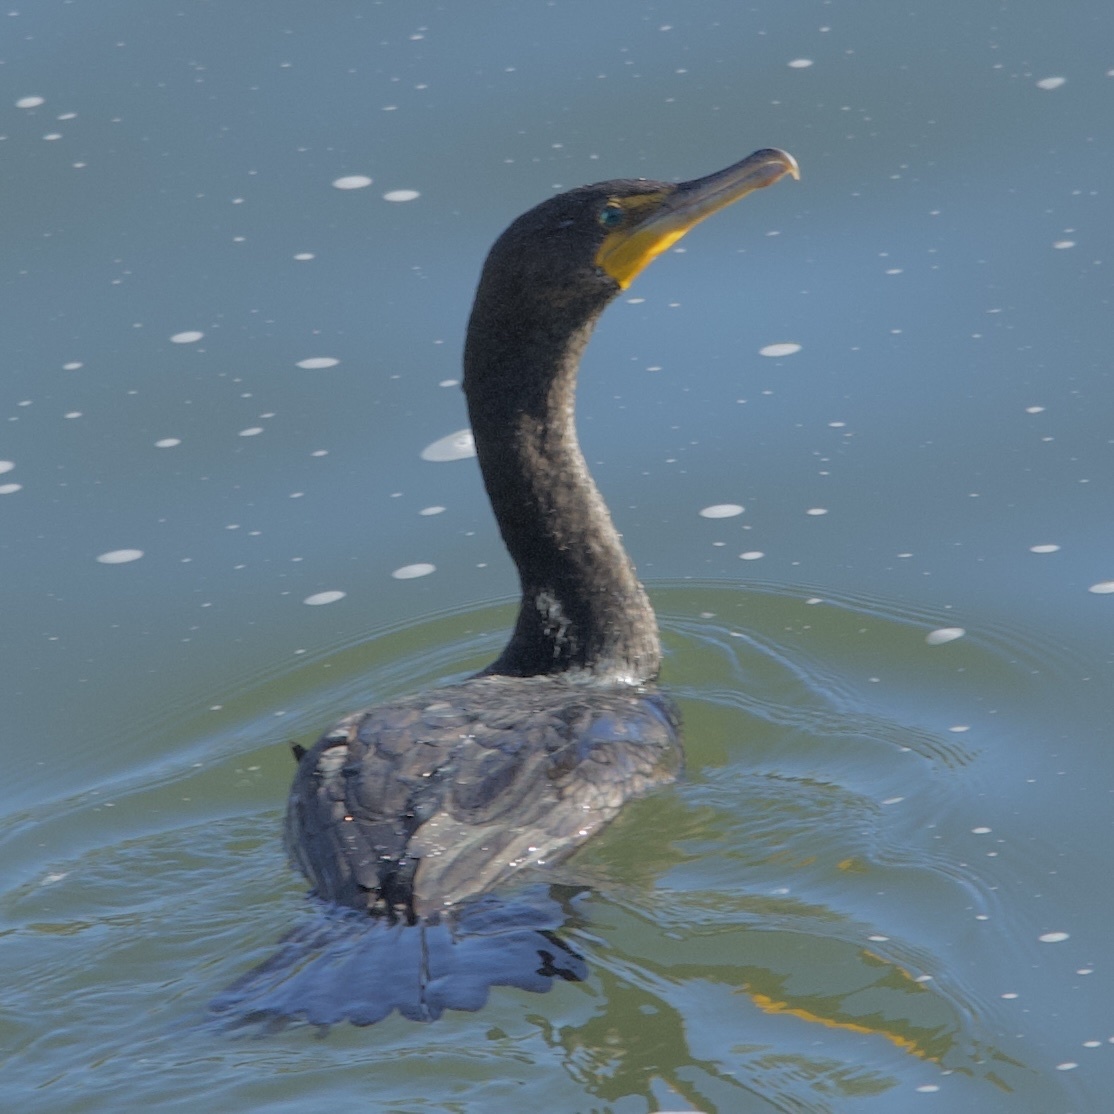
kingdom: Animalia
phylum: Chordata
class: Aves
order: Suliformes
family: Phalacrocoracidae
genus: Phalacrocorax
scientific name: Phalacrocorax auritus
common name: Double-crested cormorant
